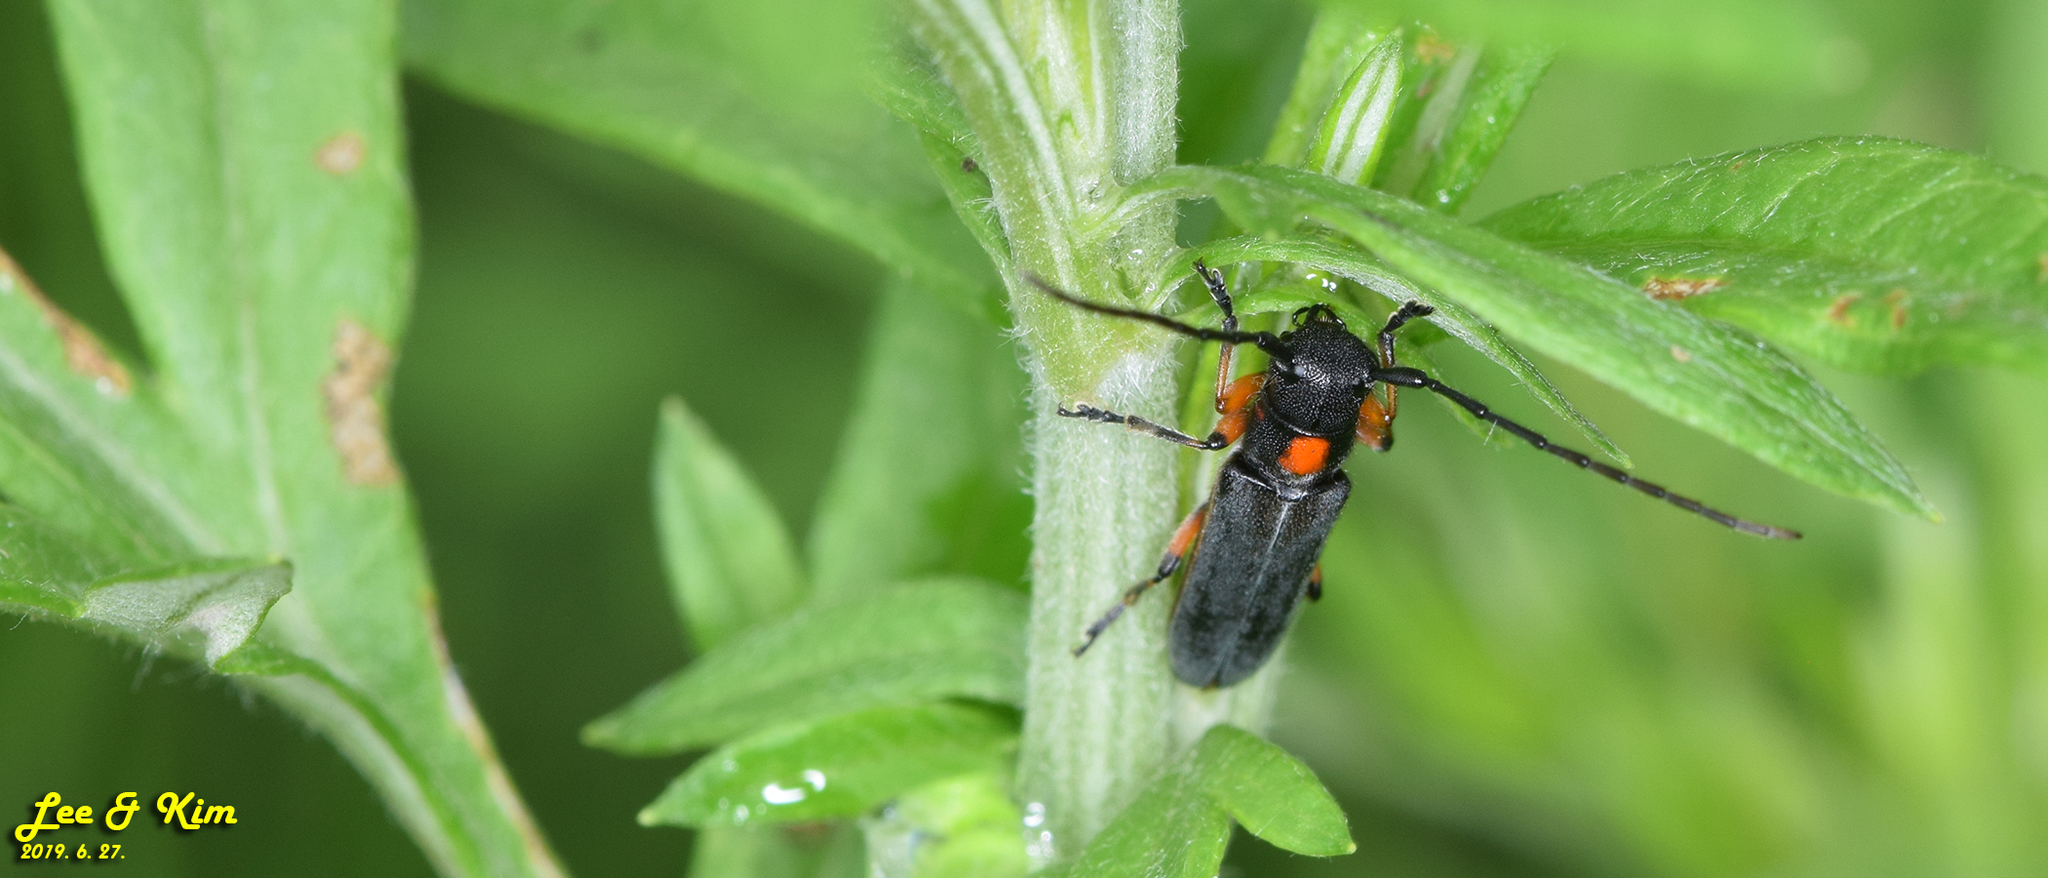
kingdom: Animalia
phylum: Arthropoda
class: Insecta
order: Coleoptera
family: Cerambycidae
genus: Phytoecia
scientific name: Phytoecia rufiventris
